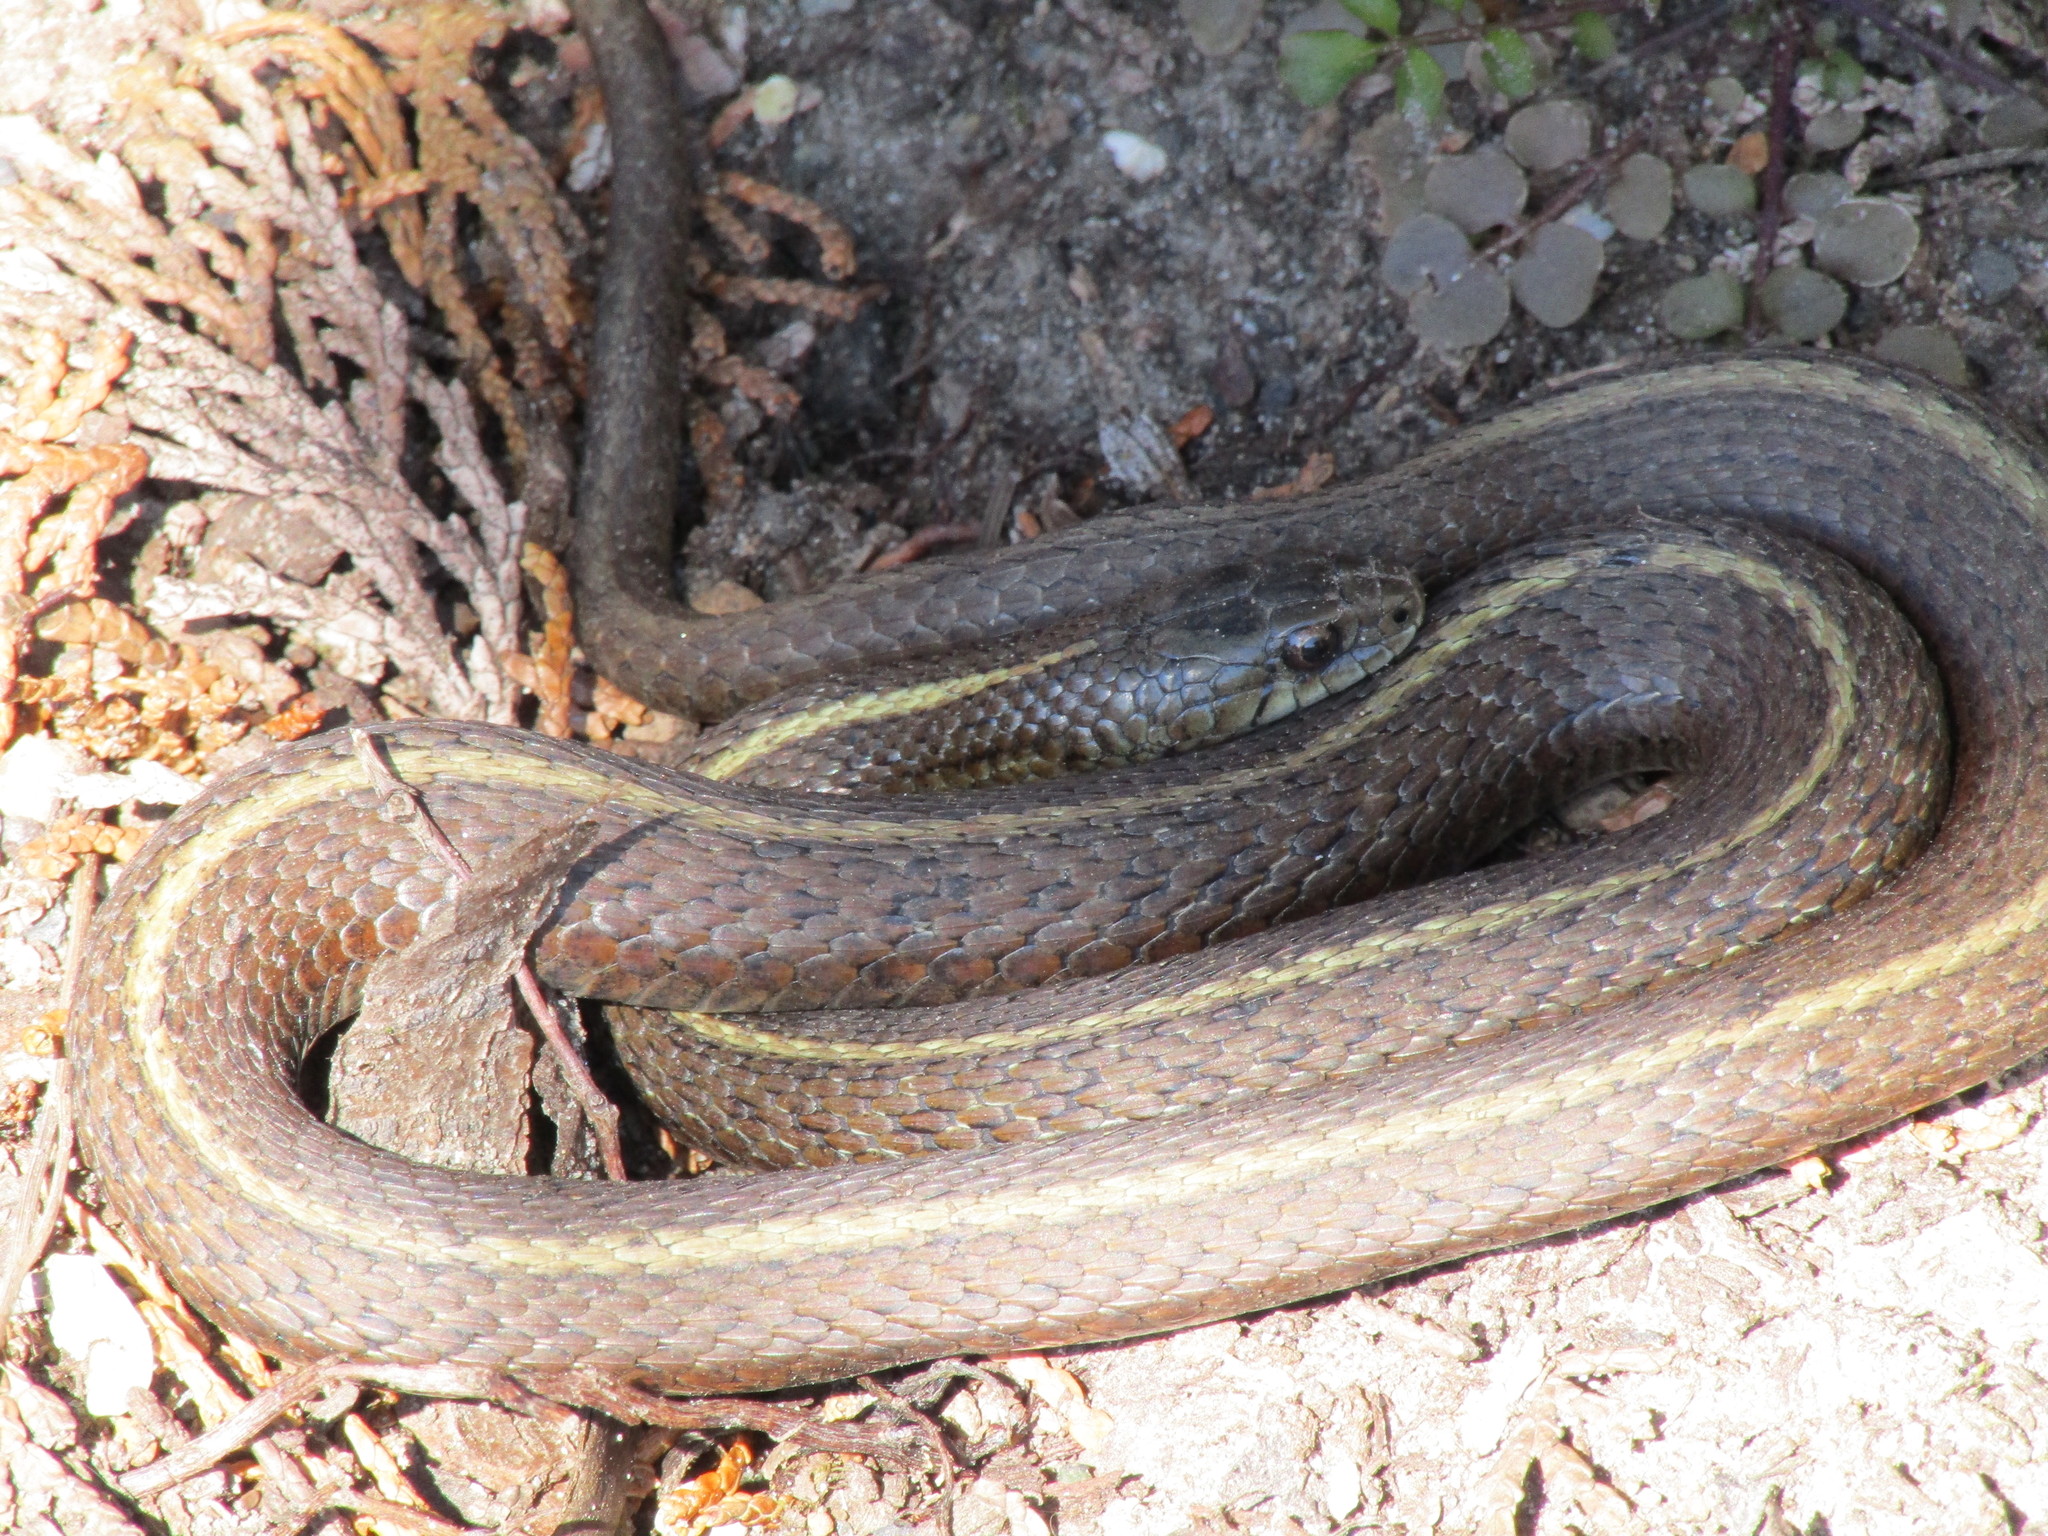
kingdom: Animalia
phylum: Chordata
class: Squamata
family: Colubridae
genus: Thamnophis
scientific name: Thamnophis ordinoides
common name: Northwestern garter snake
